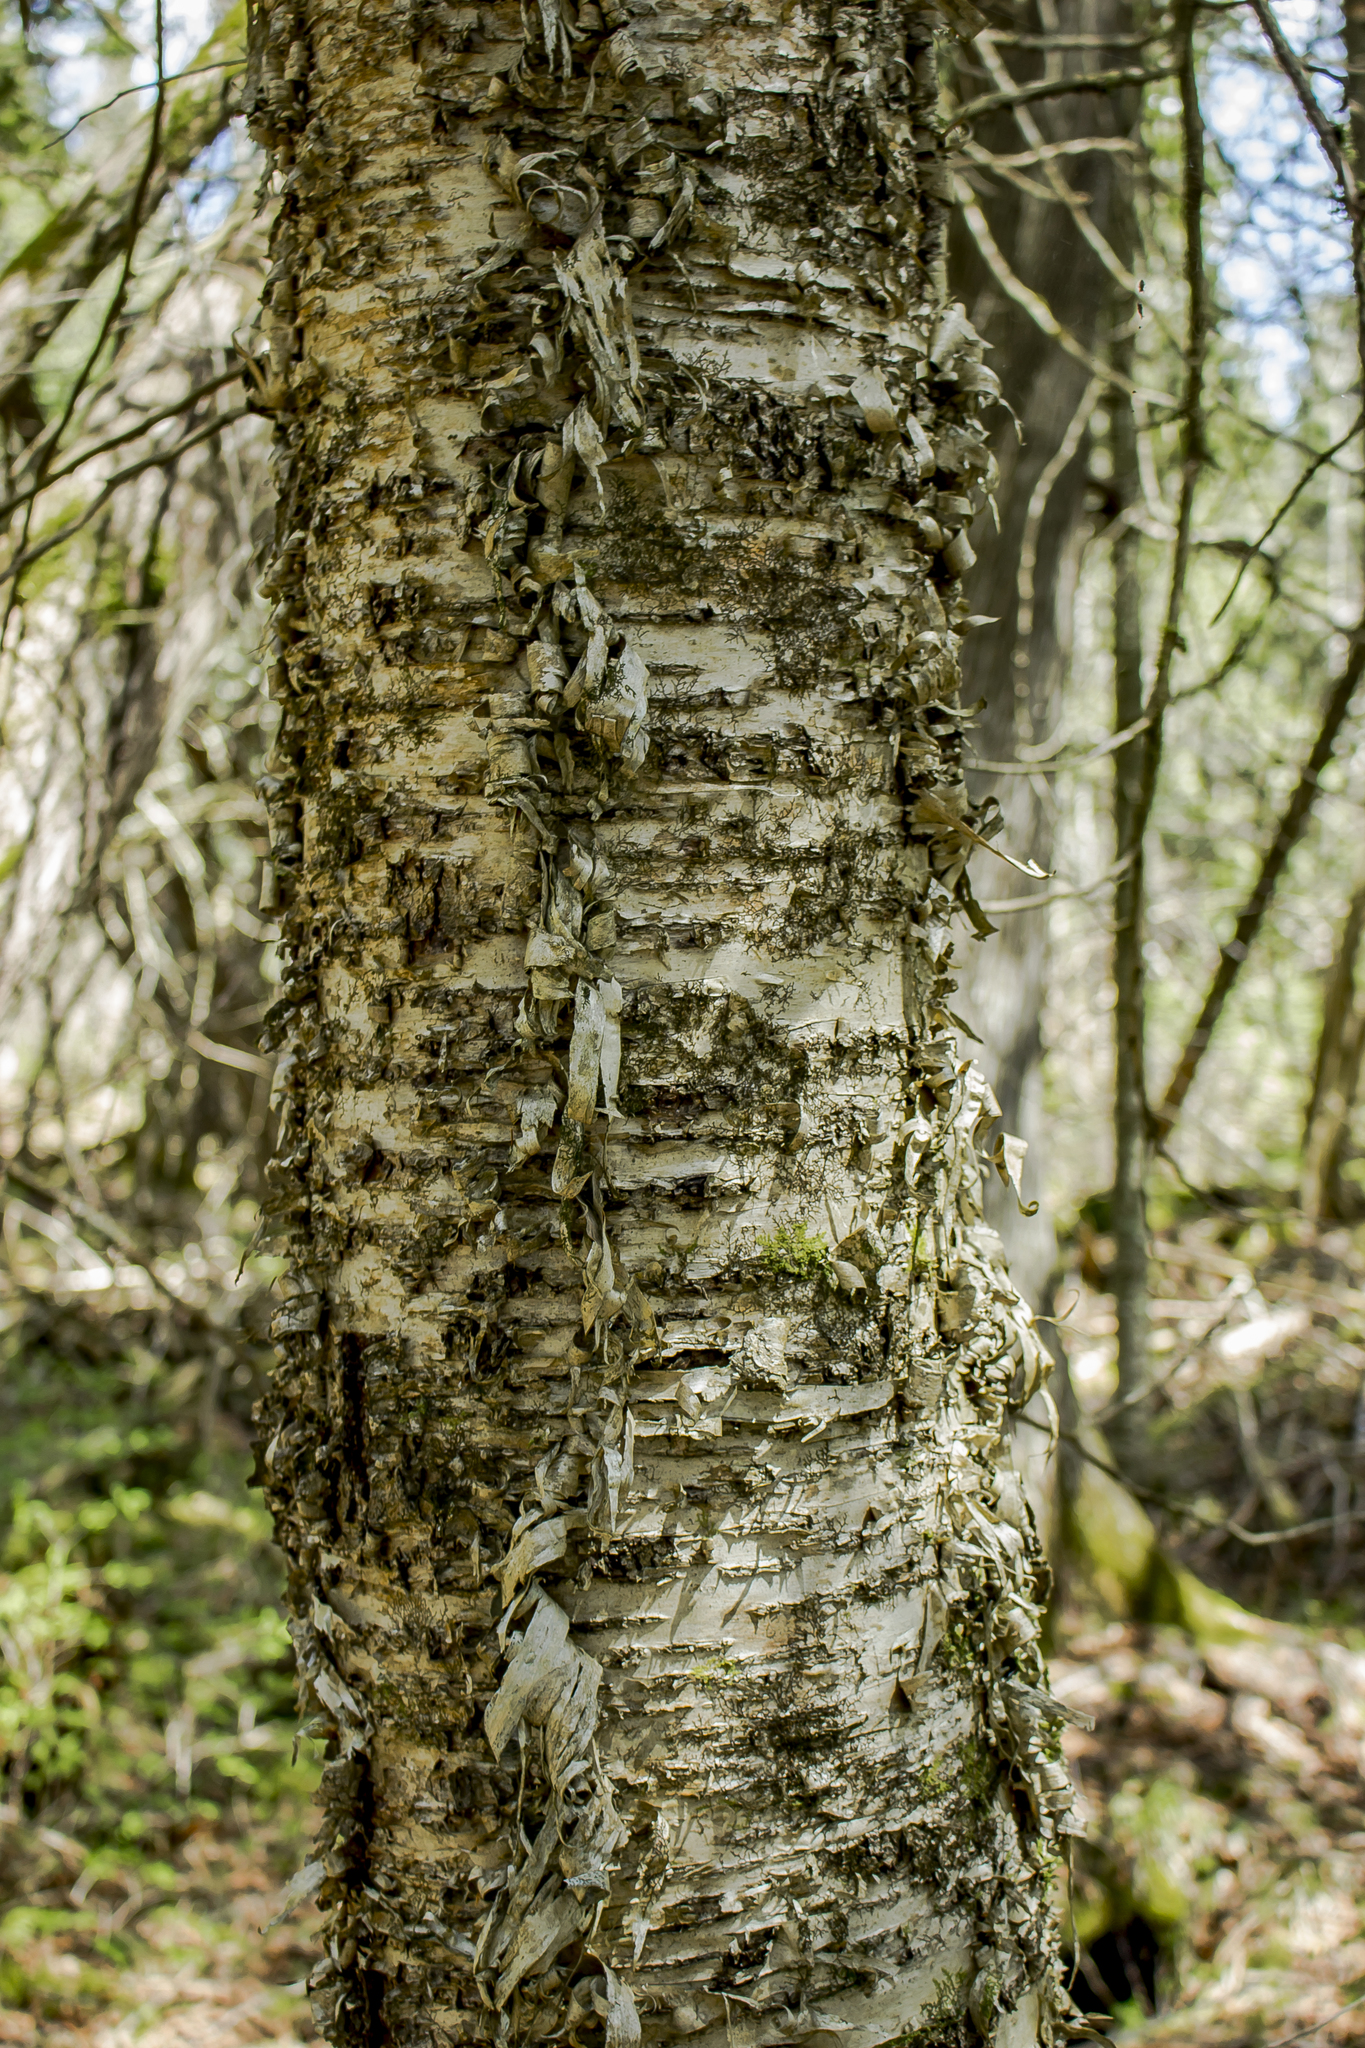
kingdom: Plantae
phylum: Tracheophyta
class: Magnoliopsida
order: Fagales
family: Betulaceae
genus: Betula
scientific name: Betula alleghaniensis
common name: Yellow birch
